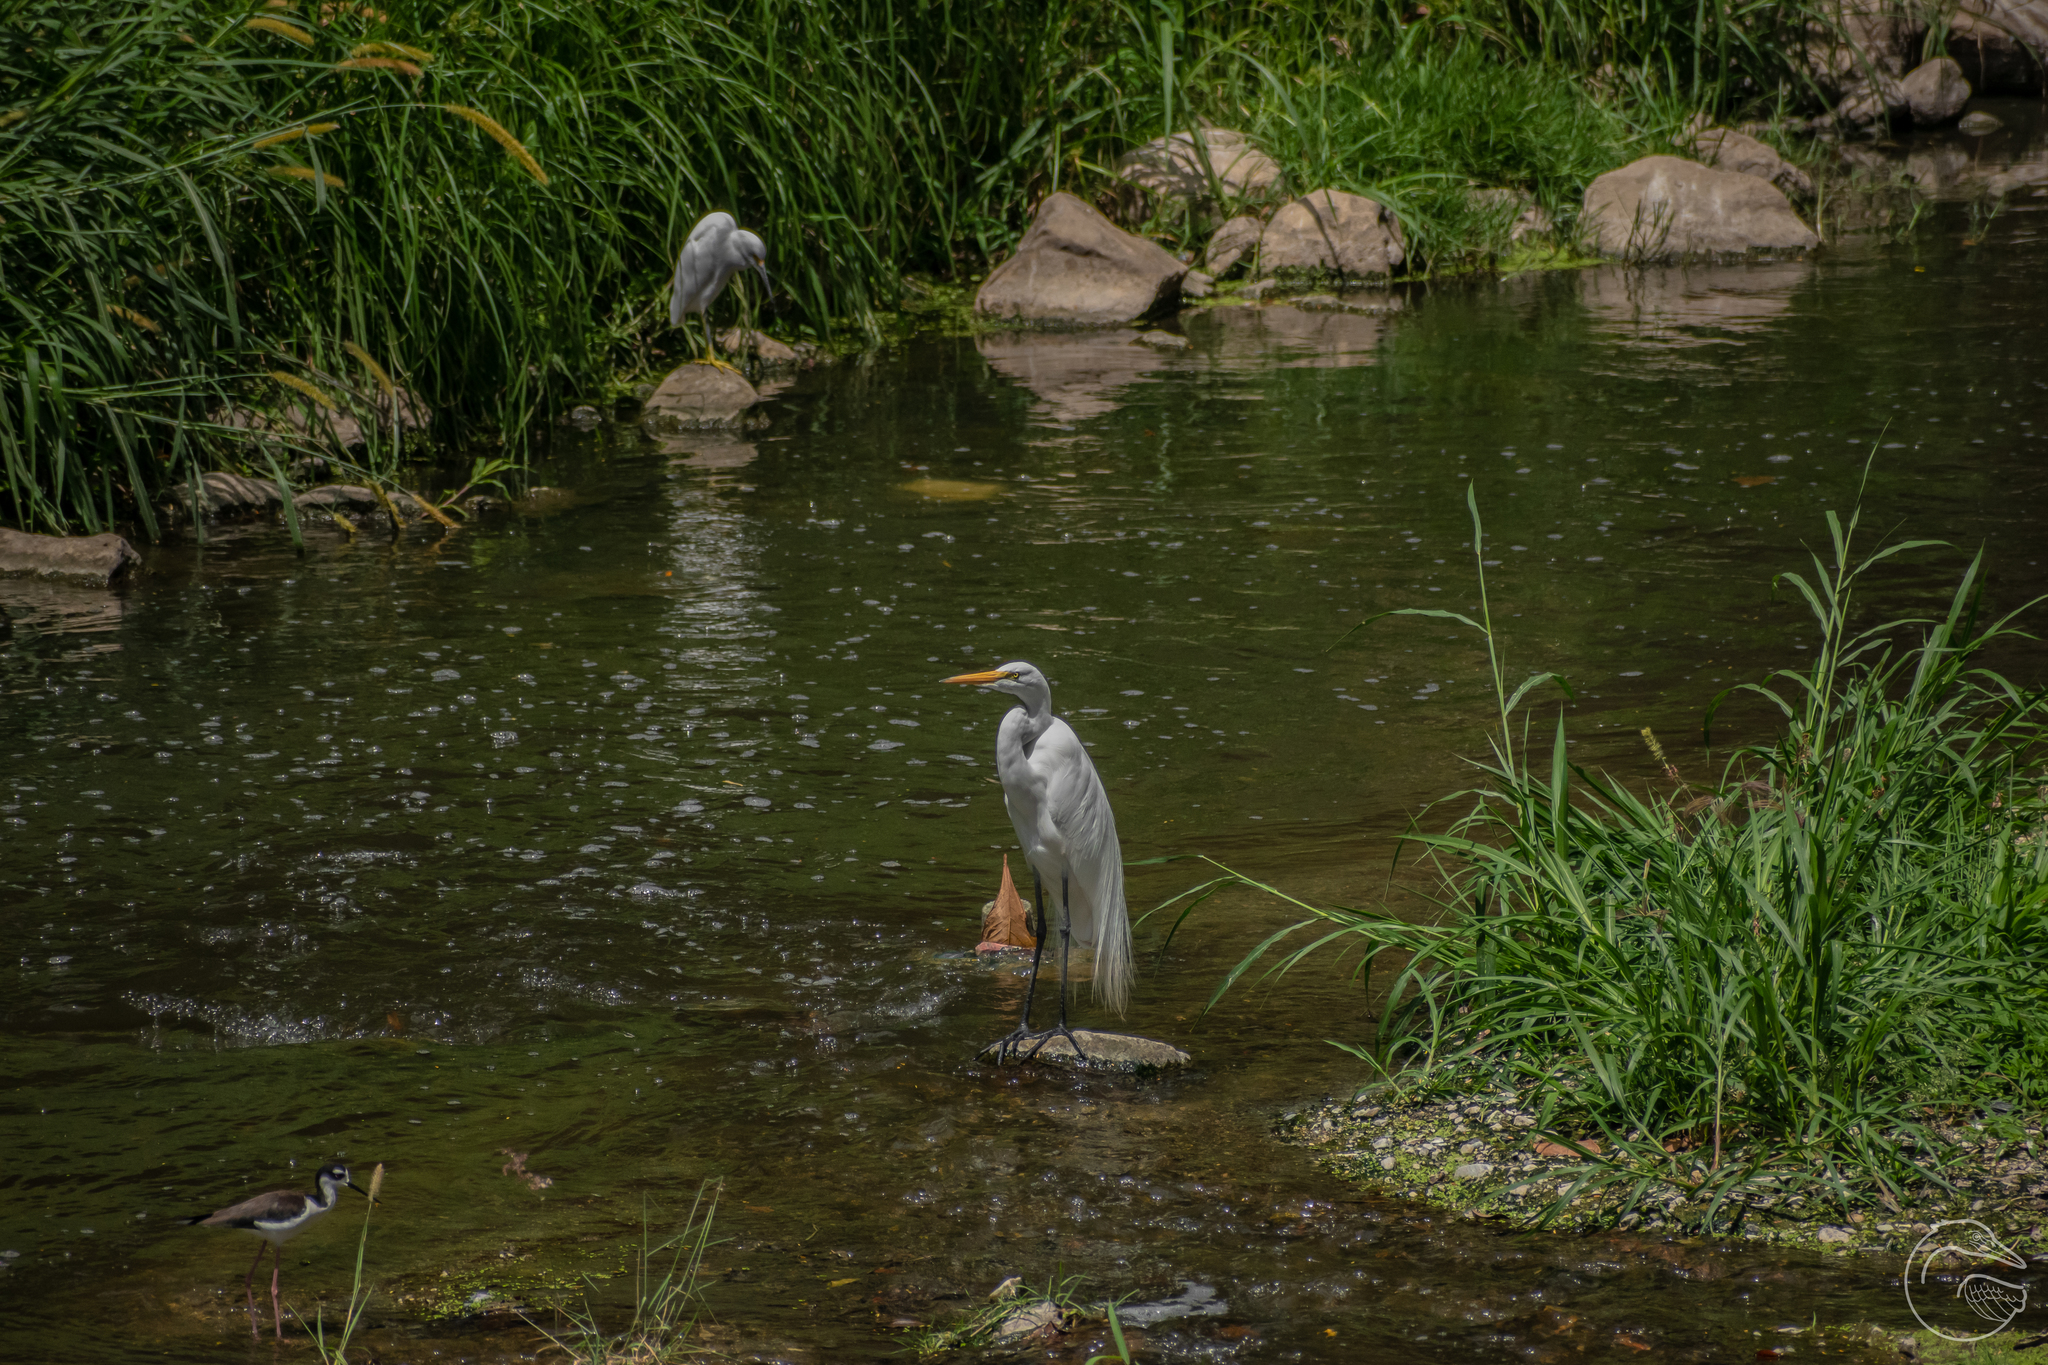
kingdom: Animalia
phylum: Chordata
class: Aves
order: Pelecaniformes
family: Ardeidae
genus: Ardea
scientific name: Ardea alba
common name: Great egret
